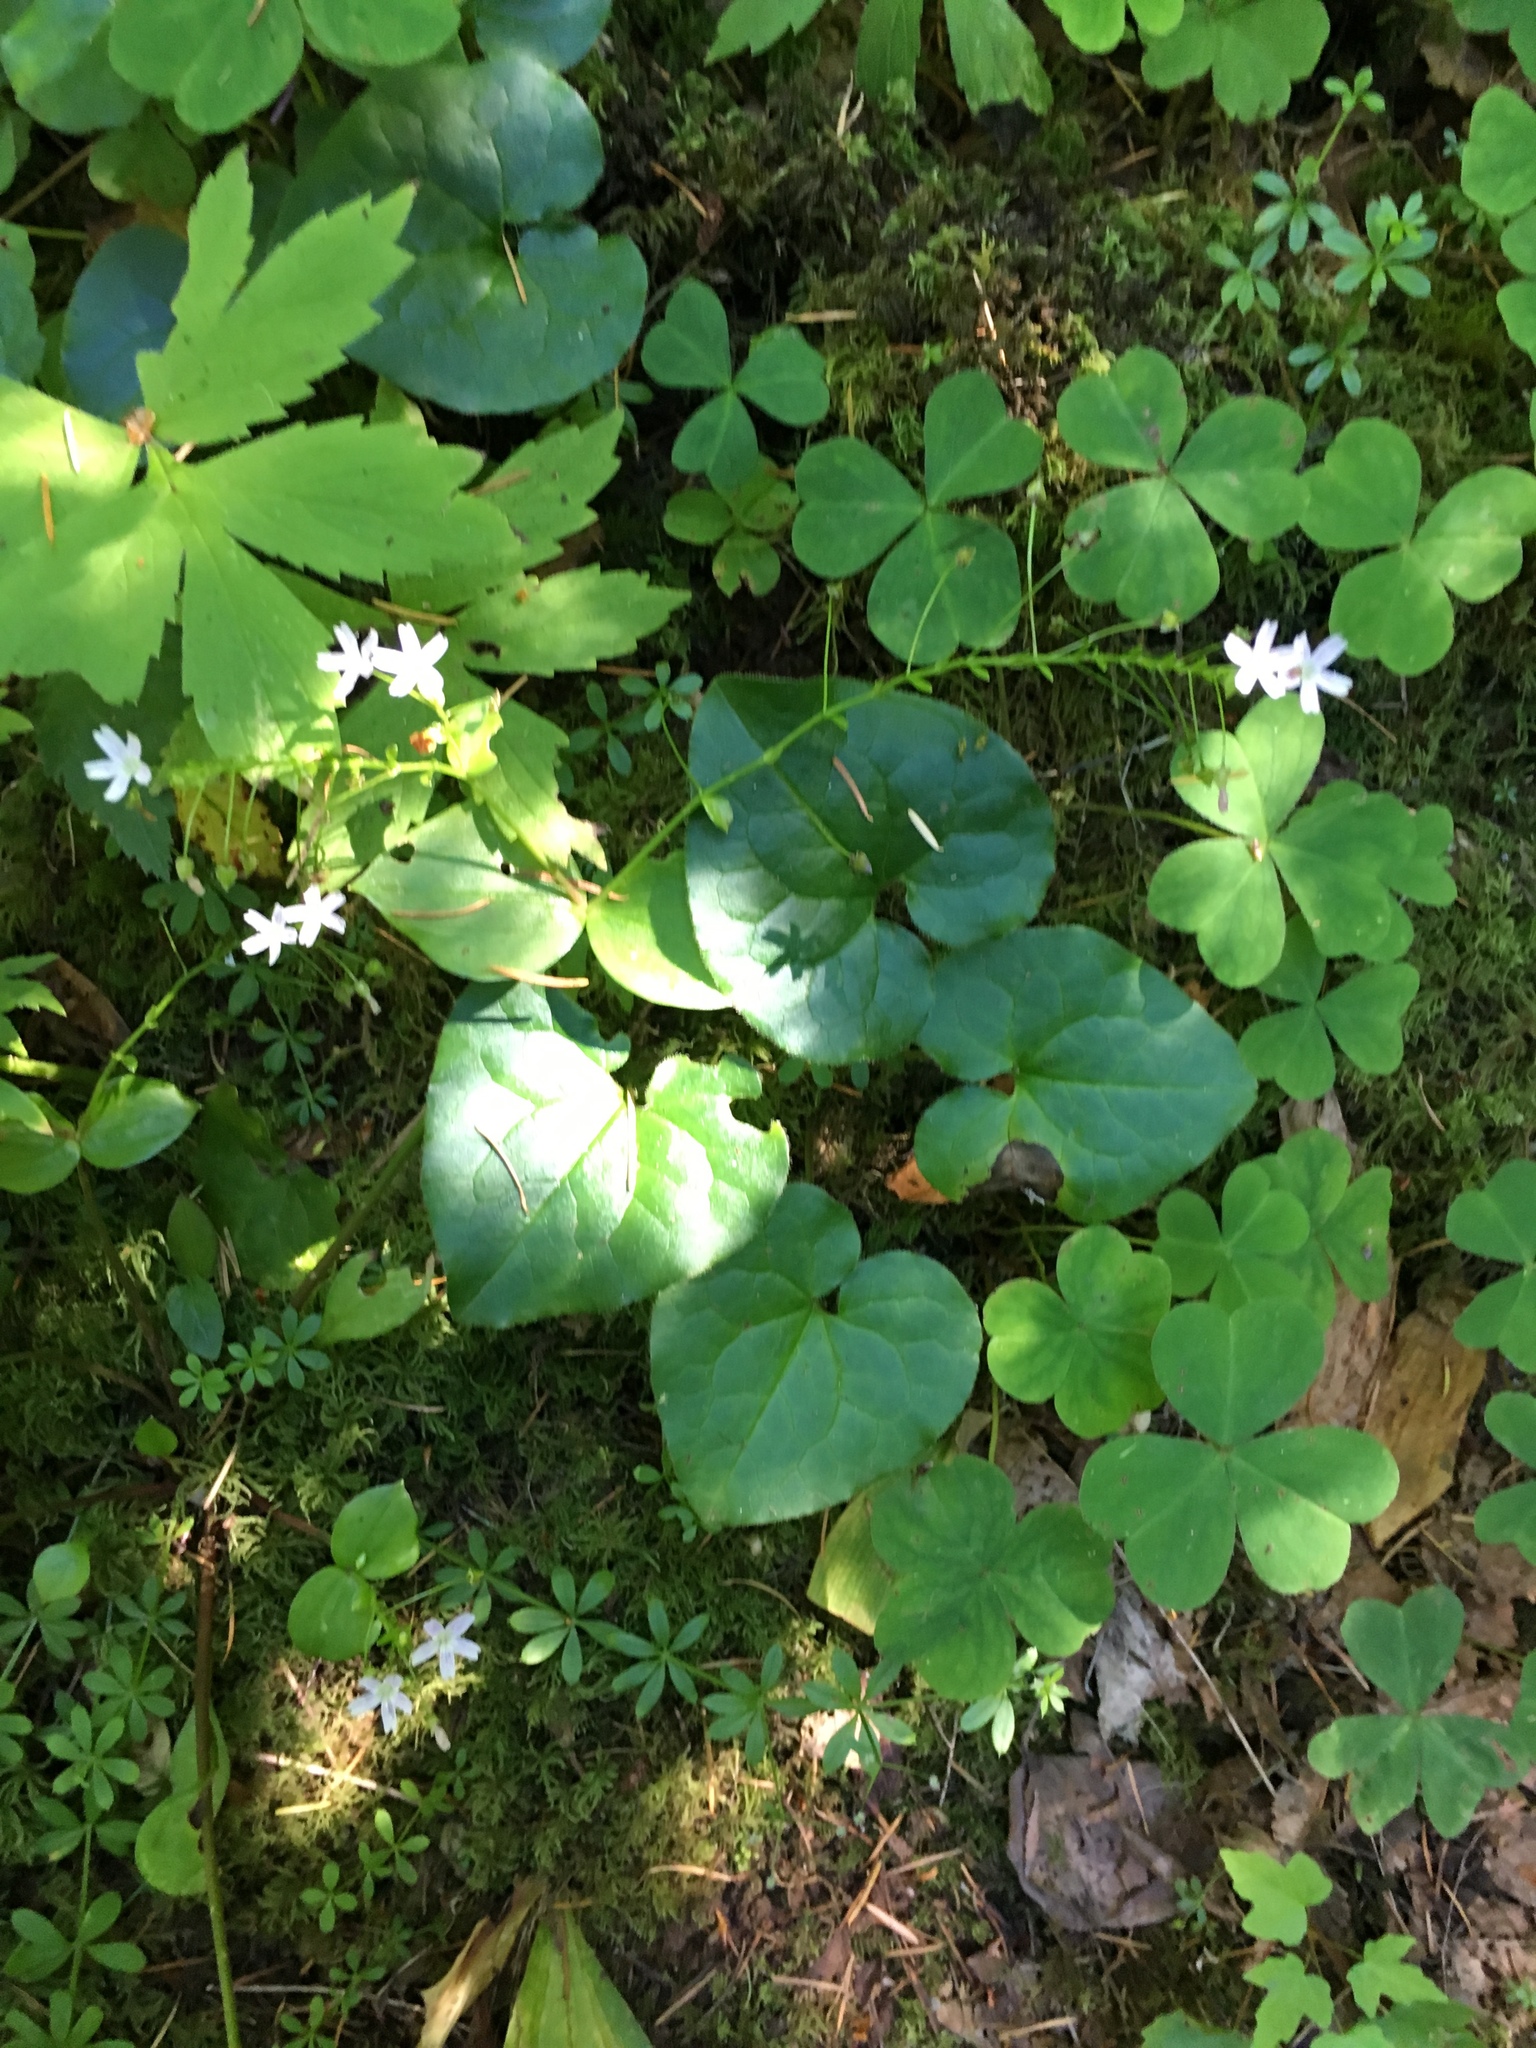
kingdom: Plantae
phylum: Tracheophyta
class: Magnoliopsida
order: Piperales
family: Aristolochiaceae
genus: Asarum
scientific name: Asarum caudatum
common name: Wild ginger
